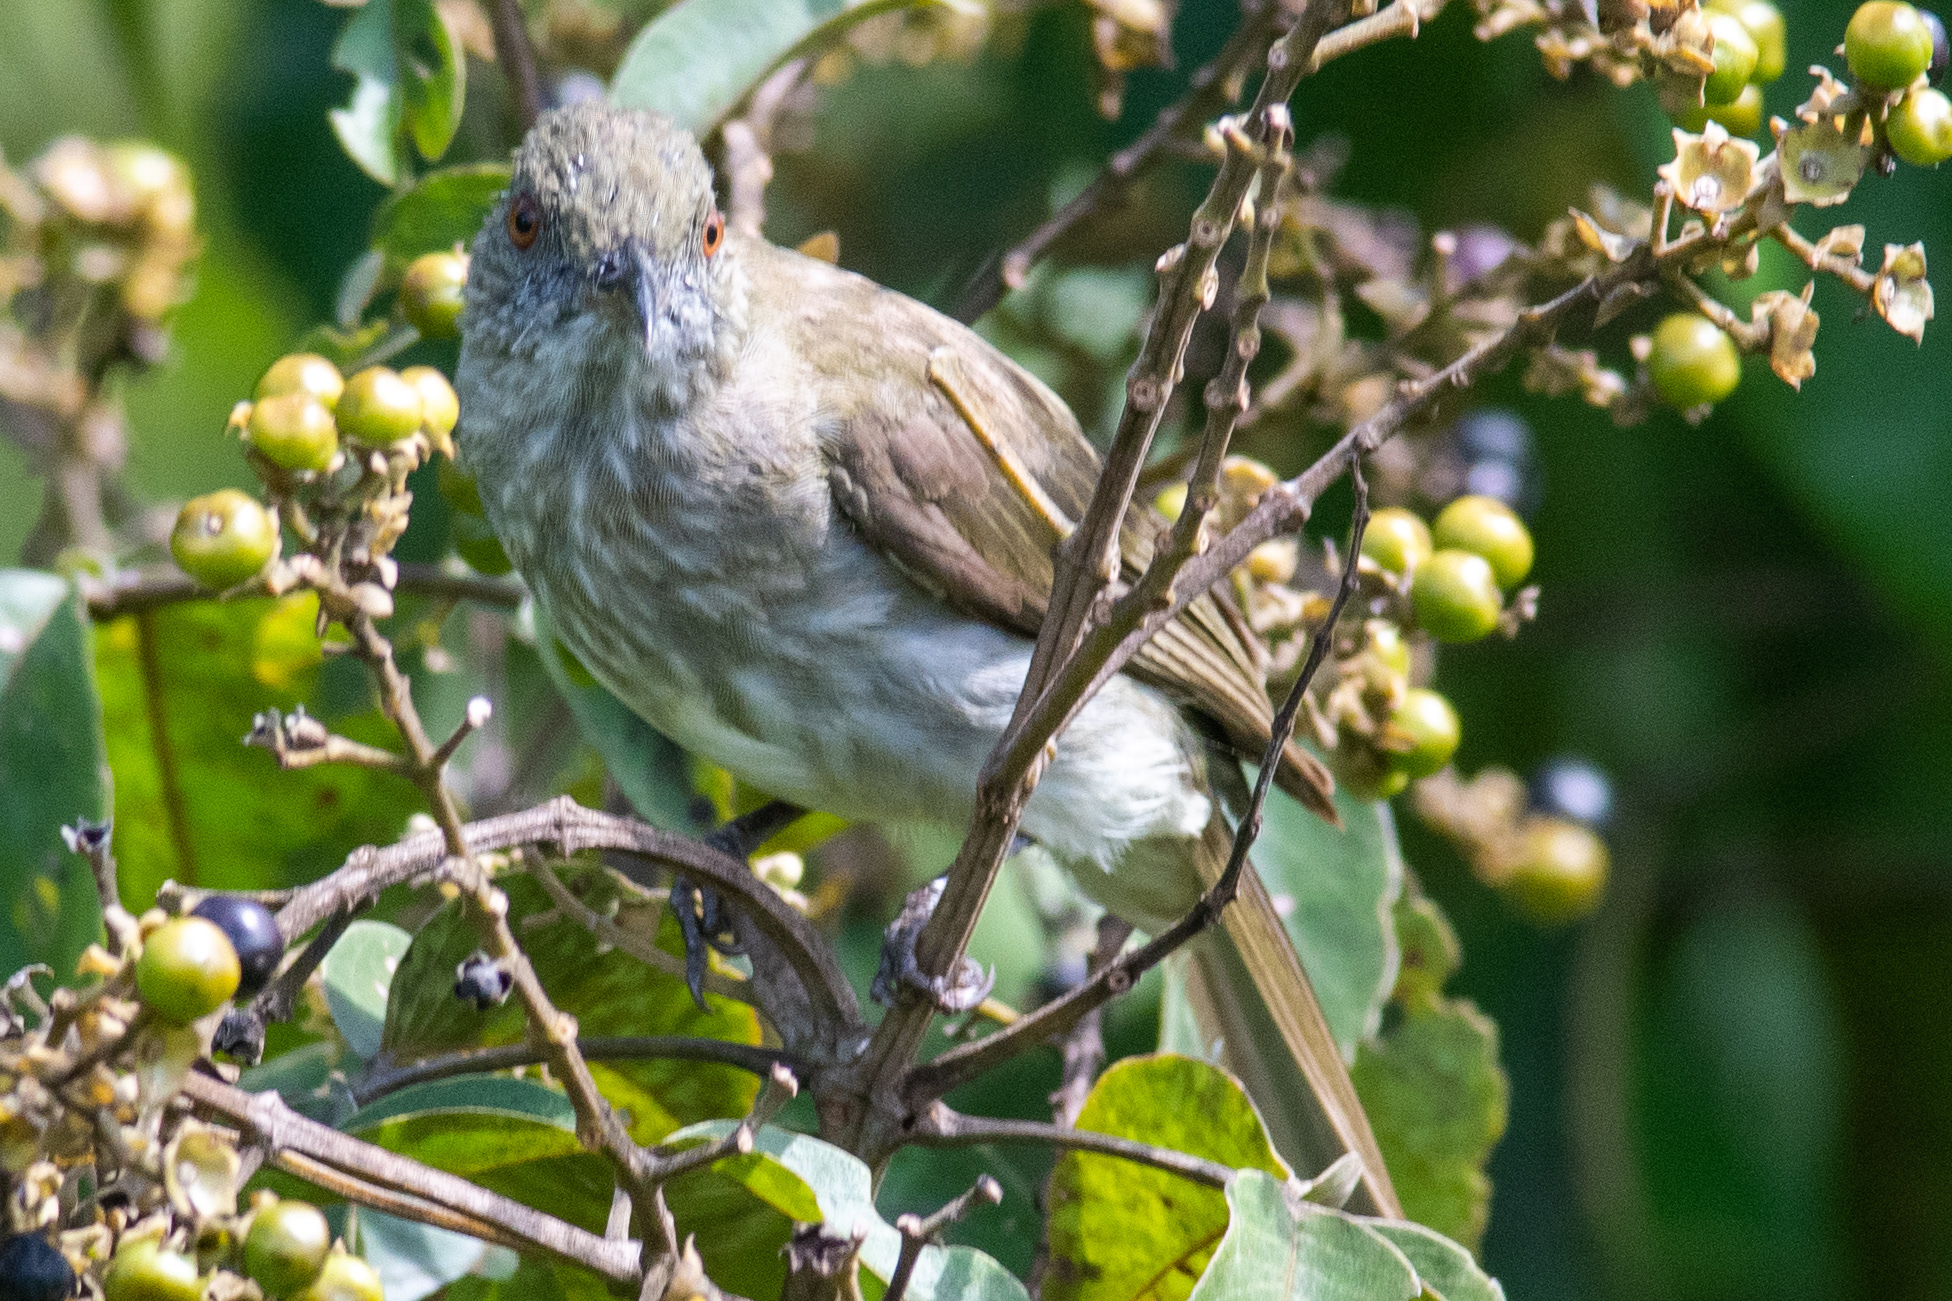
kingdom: Animalia
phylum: Chordata
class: Aves
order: Passeriformes
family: Pycnonotidae
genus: Ixos
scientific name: Ixos malaccensis
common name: Streaked bulbul
